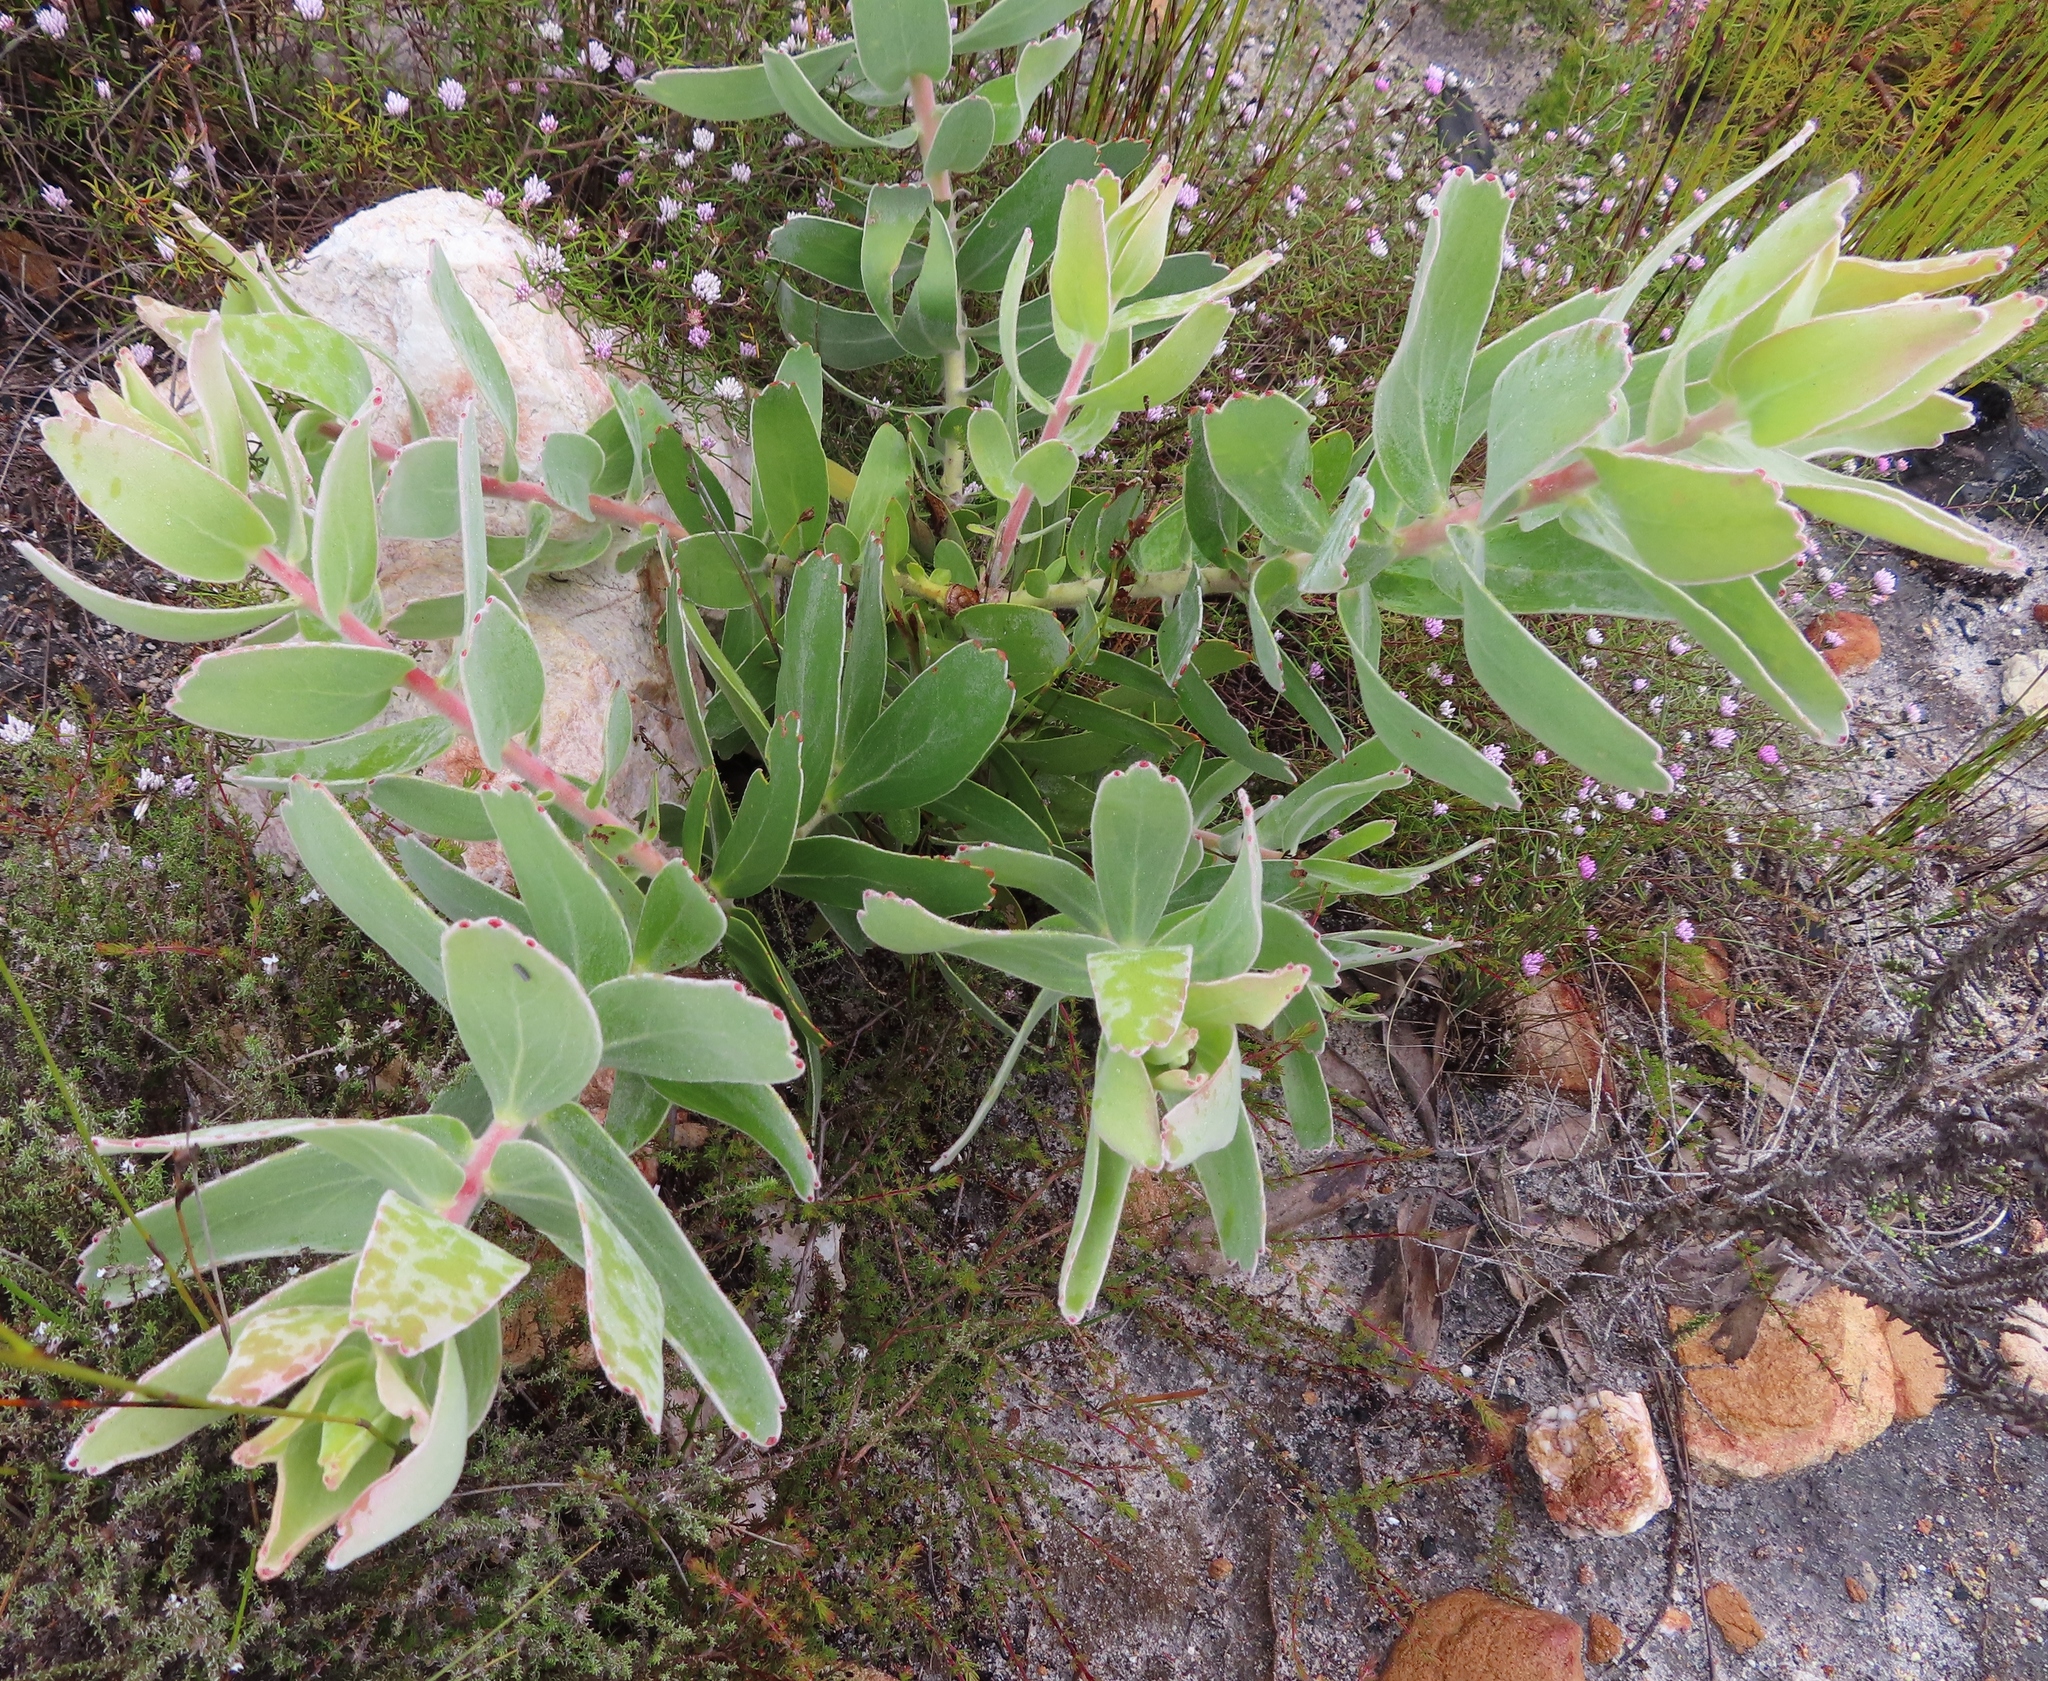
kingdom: Plantae
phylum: Tracheophyta
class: Magnoliopsida
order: Proteales
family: Proteaceae
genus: Leucospermum
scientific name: Leucospermum cordifolium
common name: Red pincushion-protea
